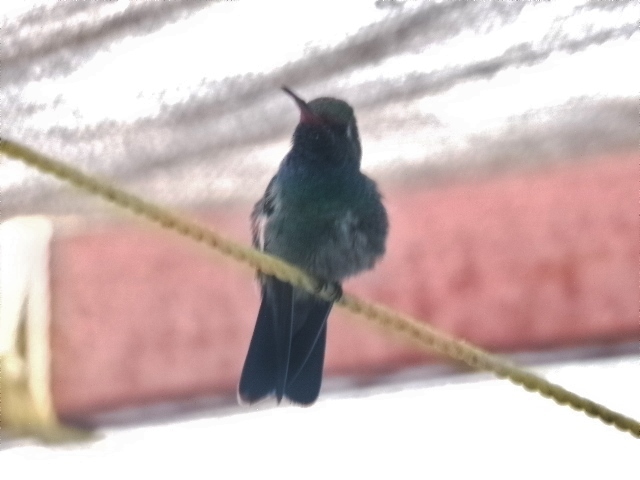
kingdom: Animalia
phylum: Chordata
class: Aves
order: Apodiformes
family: Trochilidae
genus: Cynanthus
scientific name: Cynanthus latirostris
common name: Broad-billed hummingbird
